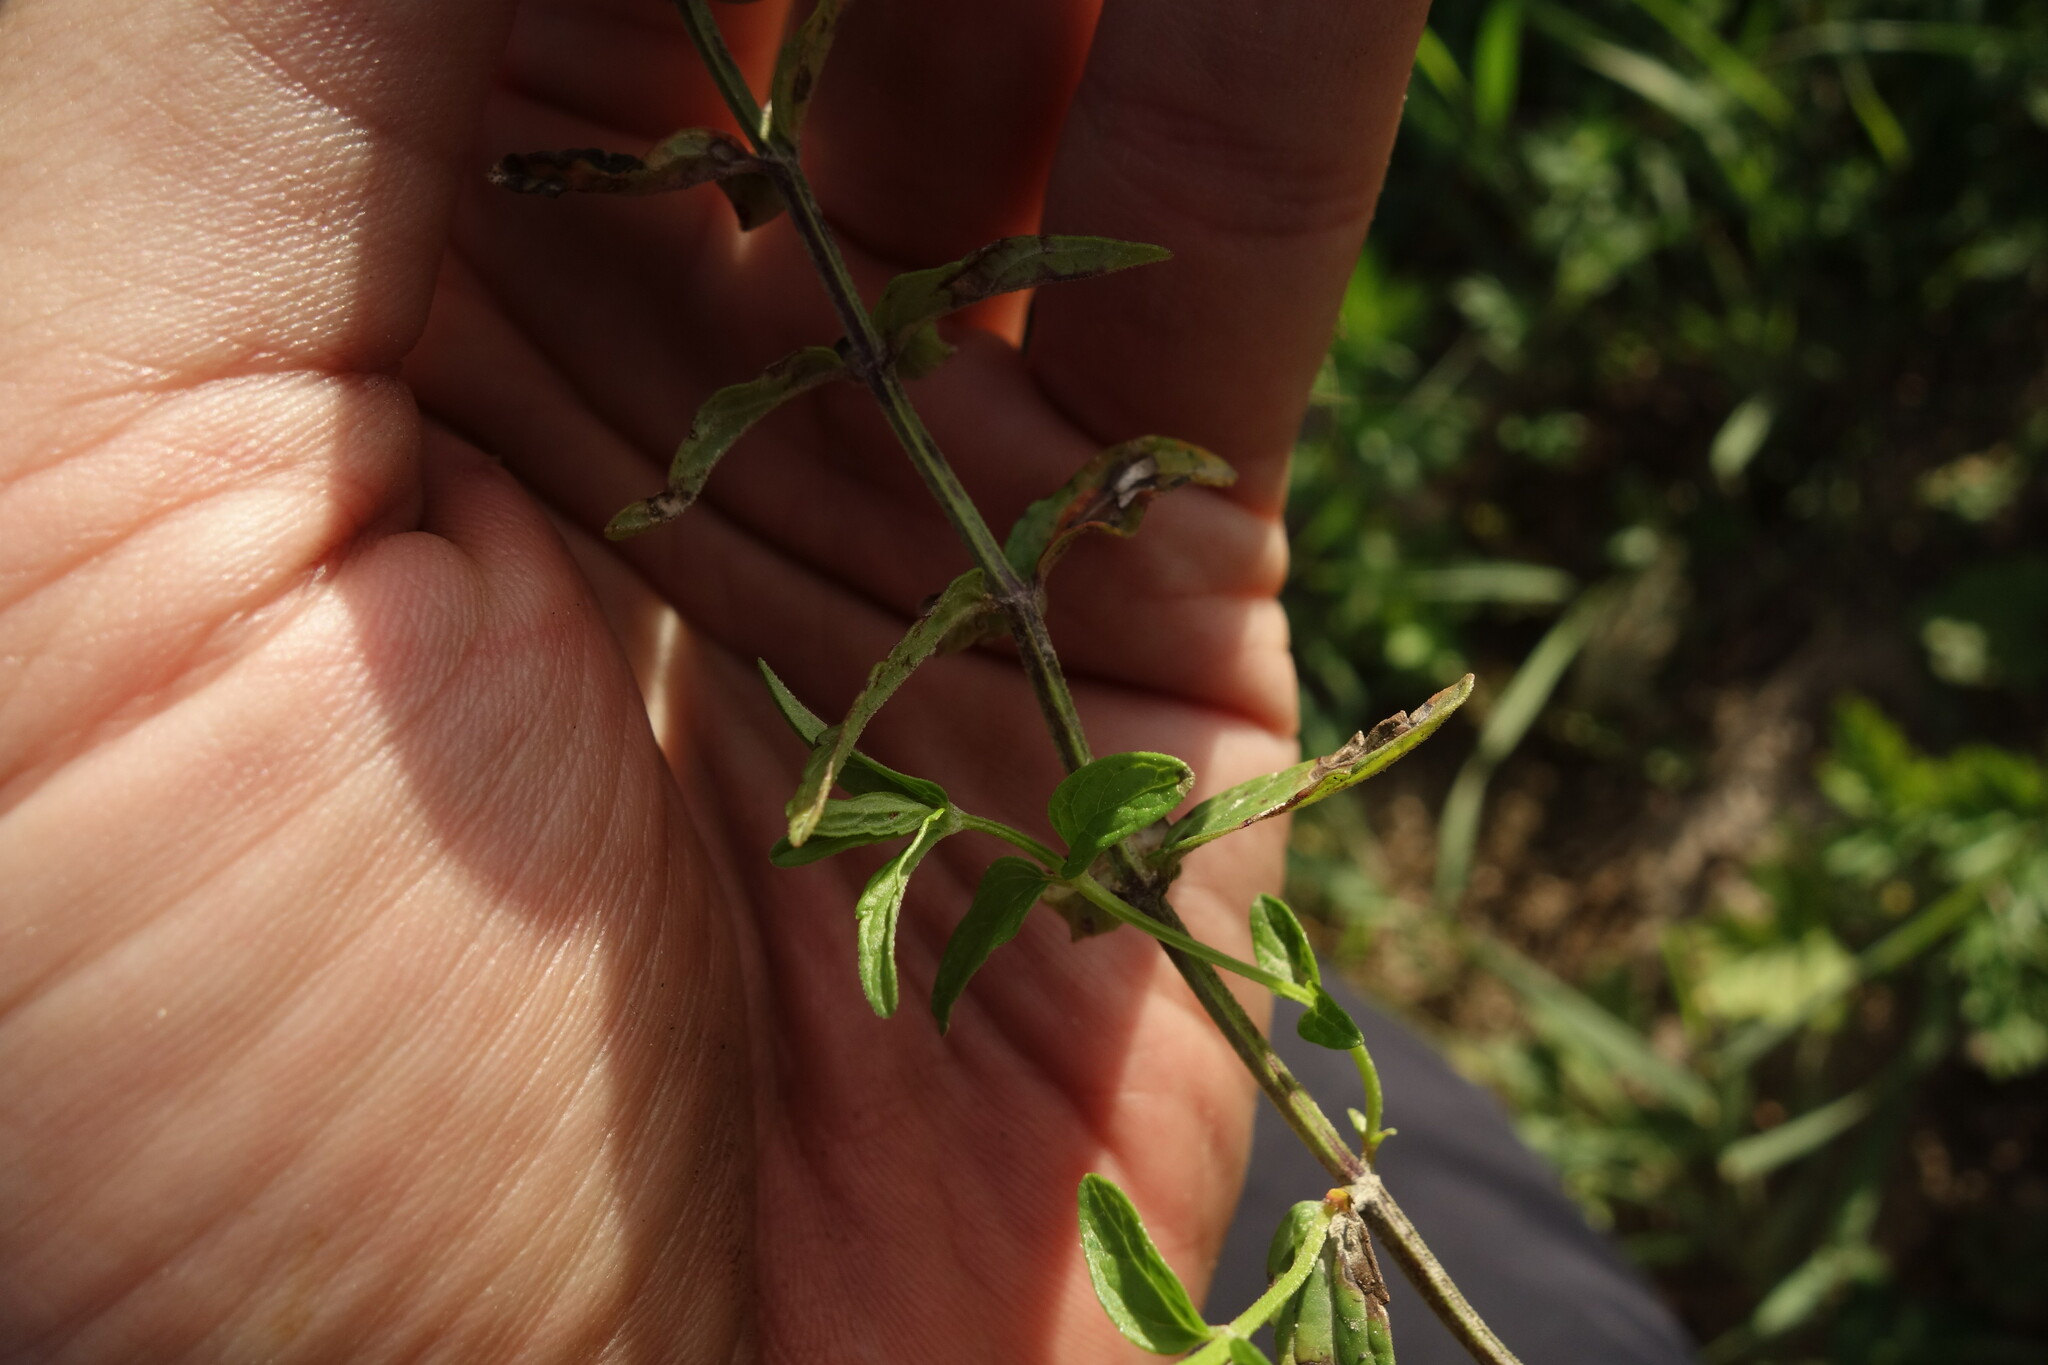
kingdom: Plantae
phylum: Tracheophyta
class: Magnoliopsida
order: Lamiales
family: Lamiaceae
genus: Scutellaria
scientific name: Scutellaria scordiifolia
